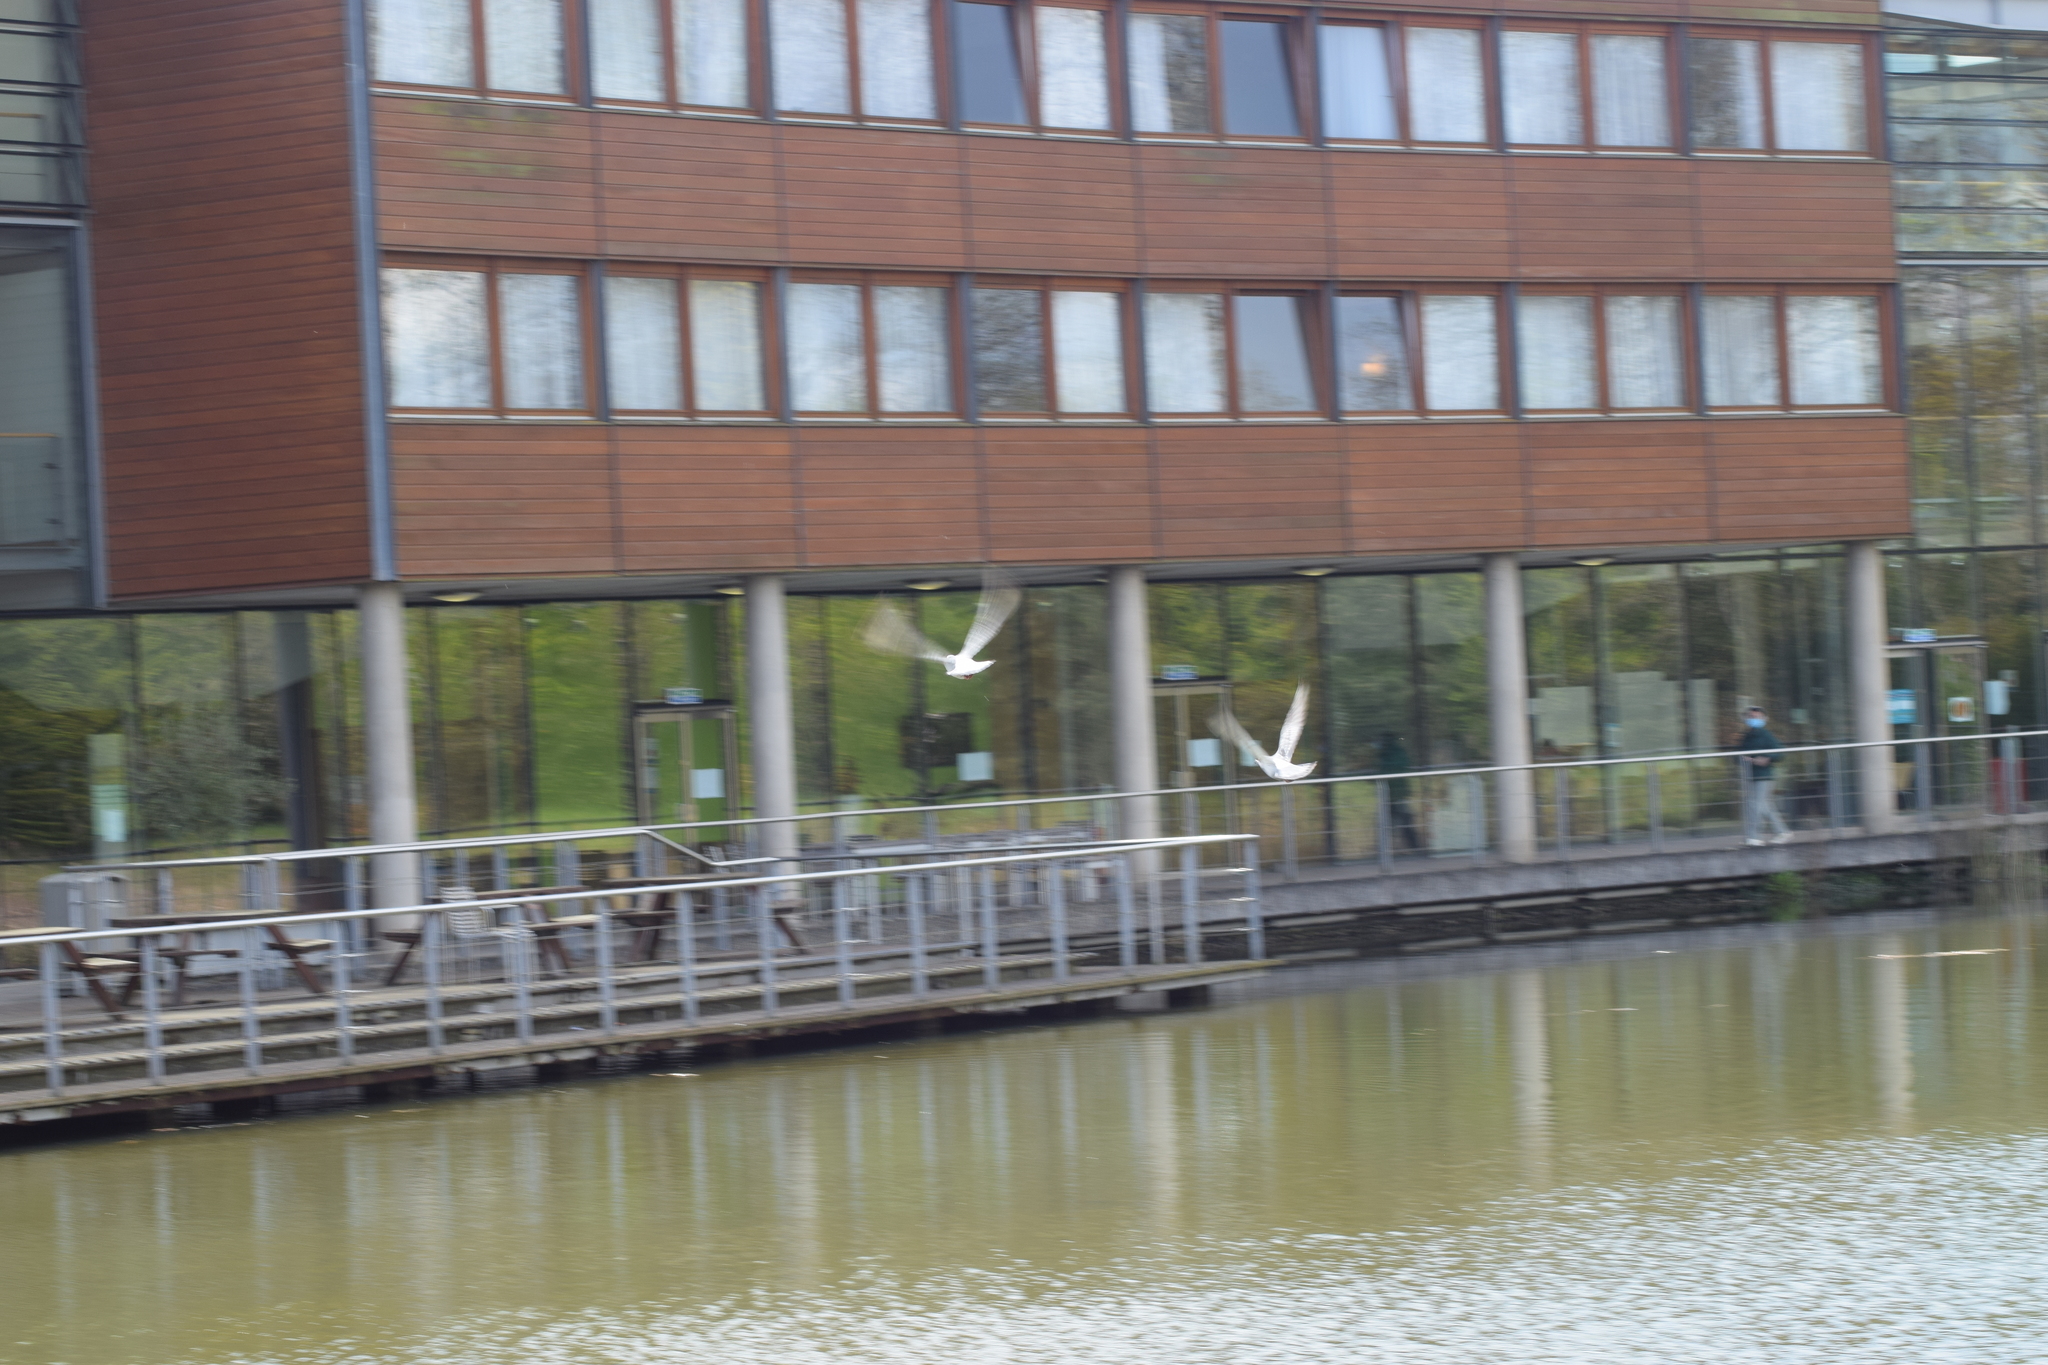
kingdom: Animalia
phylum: Chordata
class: Aves
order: Columbiformes
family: Columbidae
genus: Columba
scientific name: Columba livia
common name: Rock pigeon
